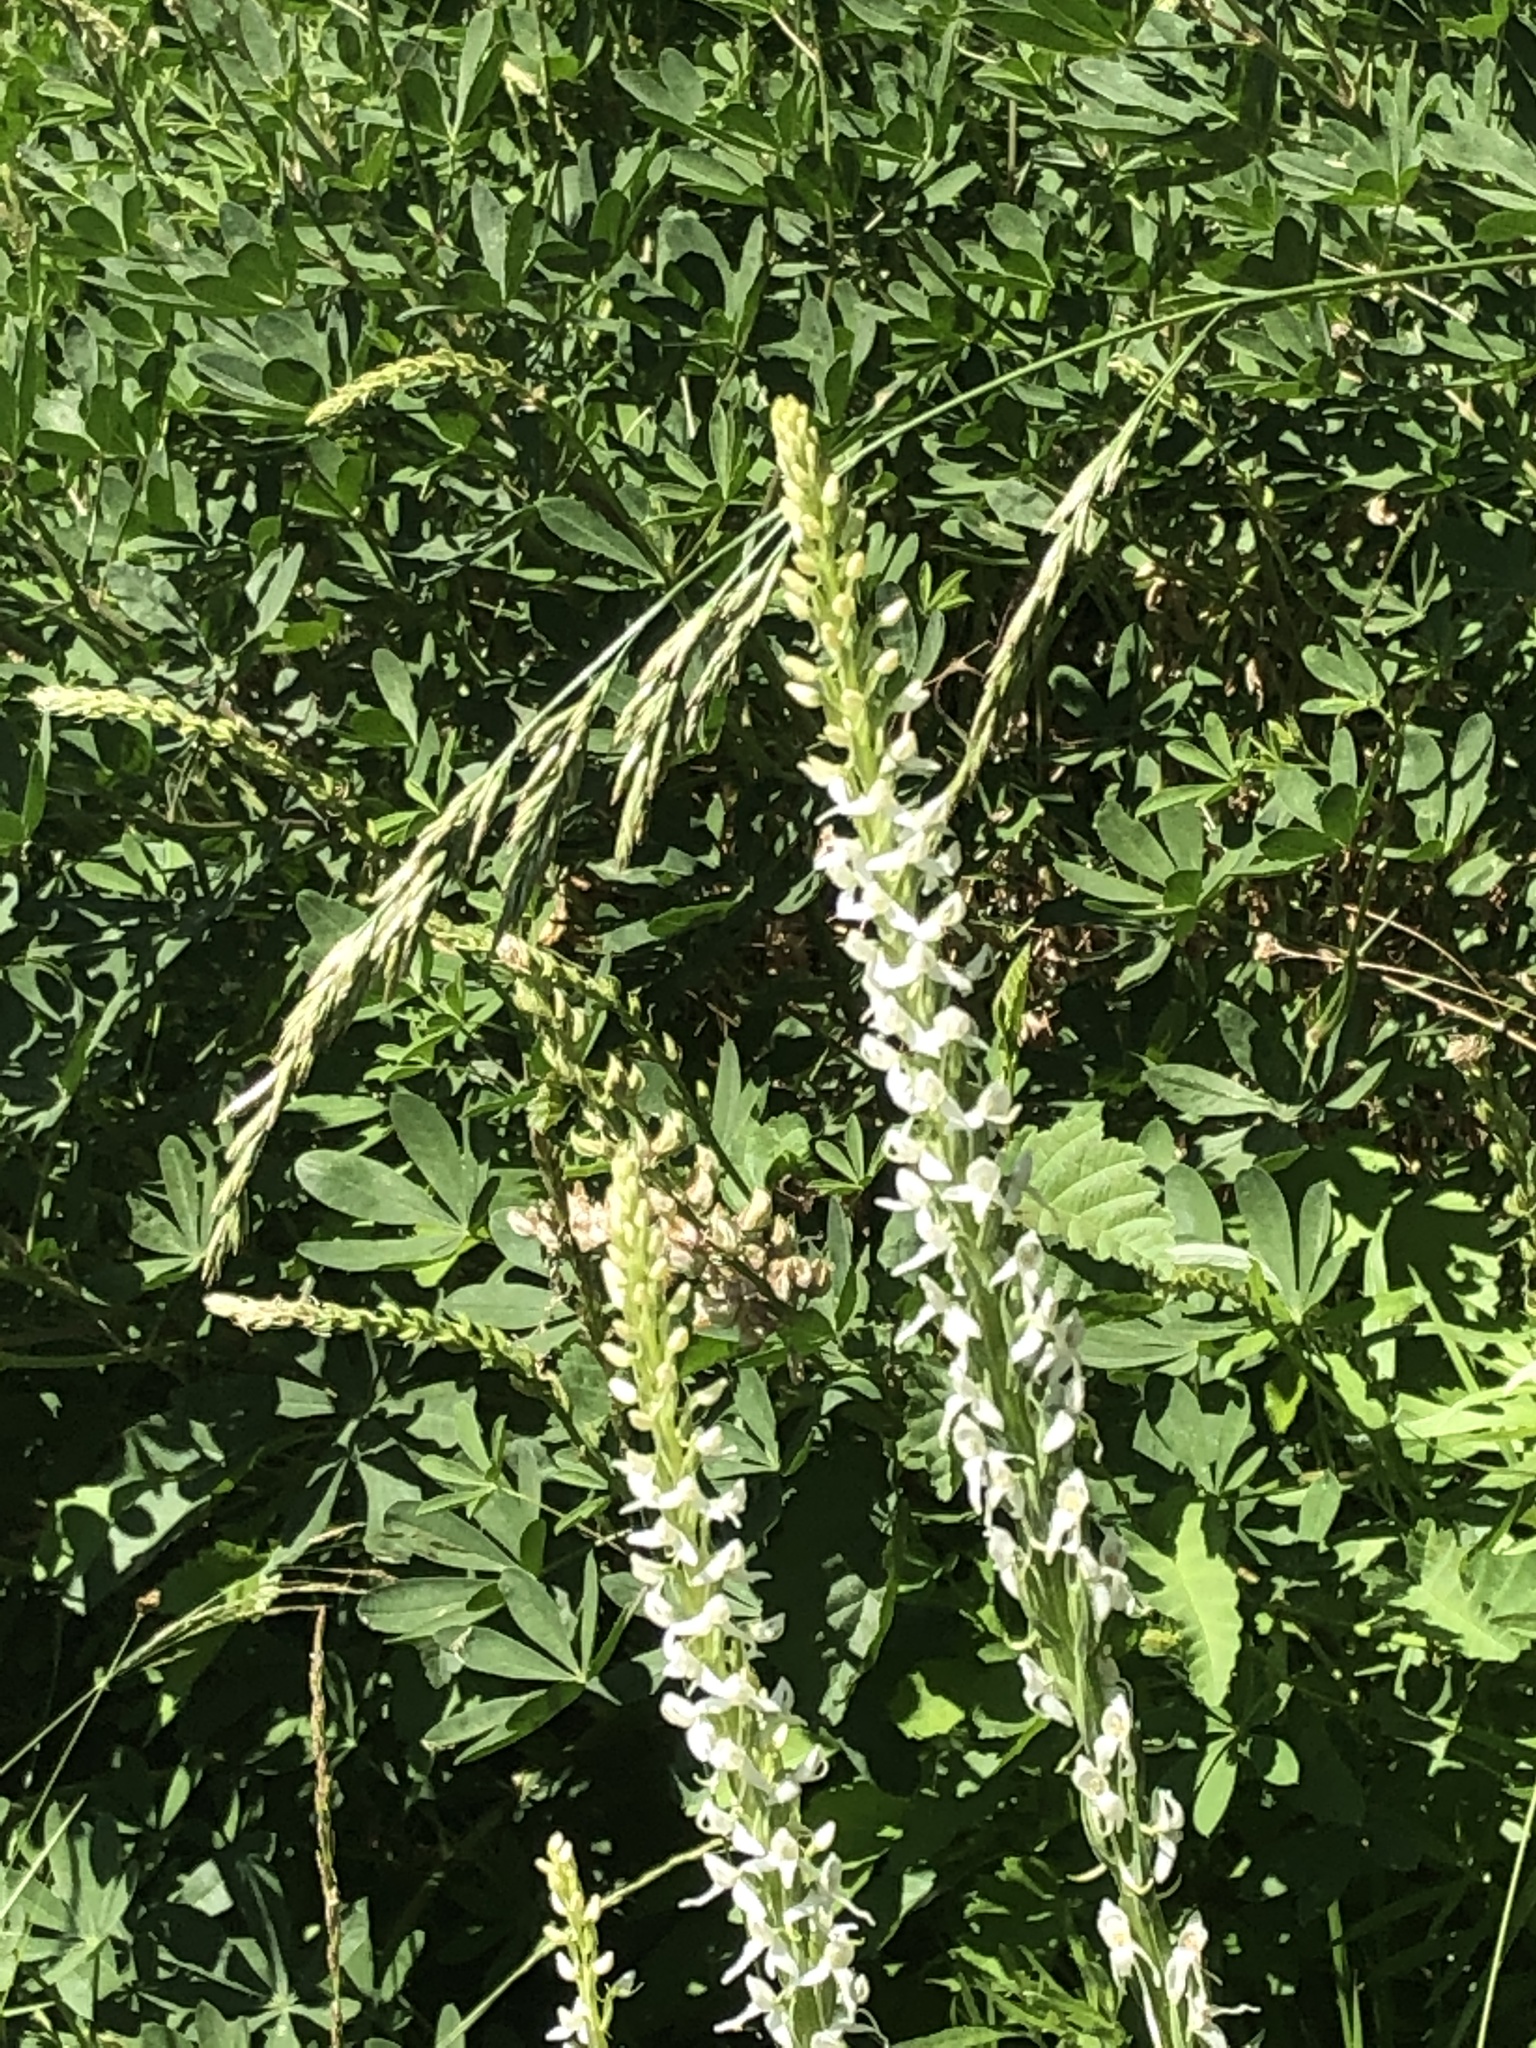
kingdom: Plantae
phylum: Tracheophyta
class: Liliopsida
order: Asparagales
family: Orchidaceae
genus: Platanthera
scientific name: Platanthera dilatata
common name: Bog candles
